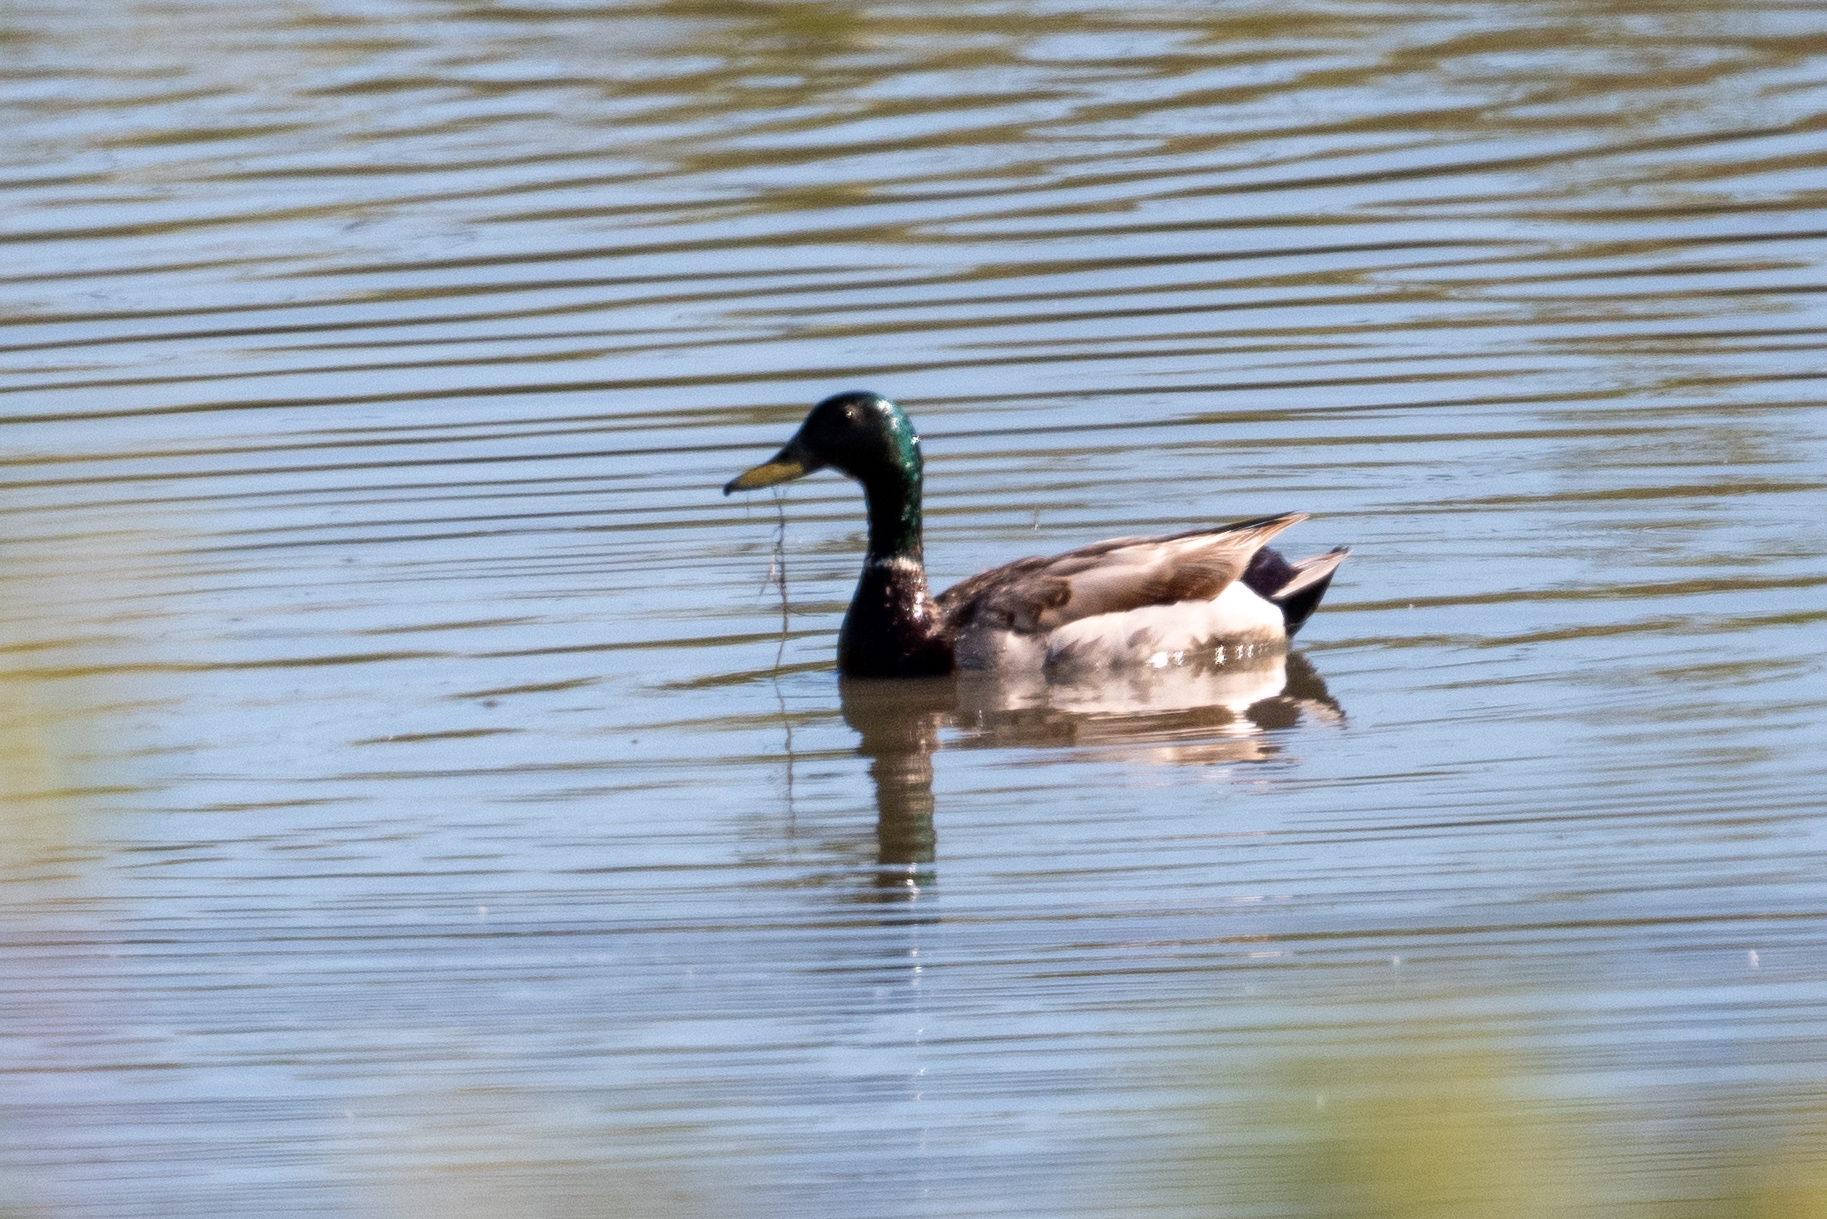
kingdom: Animalia
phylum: Chordata
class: Aves
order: Anseriformes
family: Anatidae
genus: Anas
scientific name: Anas platyrhynchos
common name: Mallard
